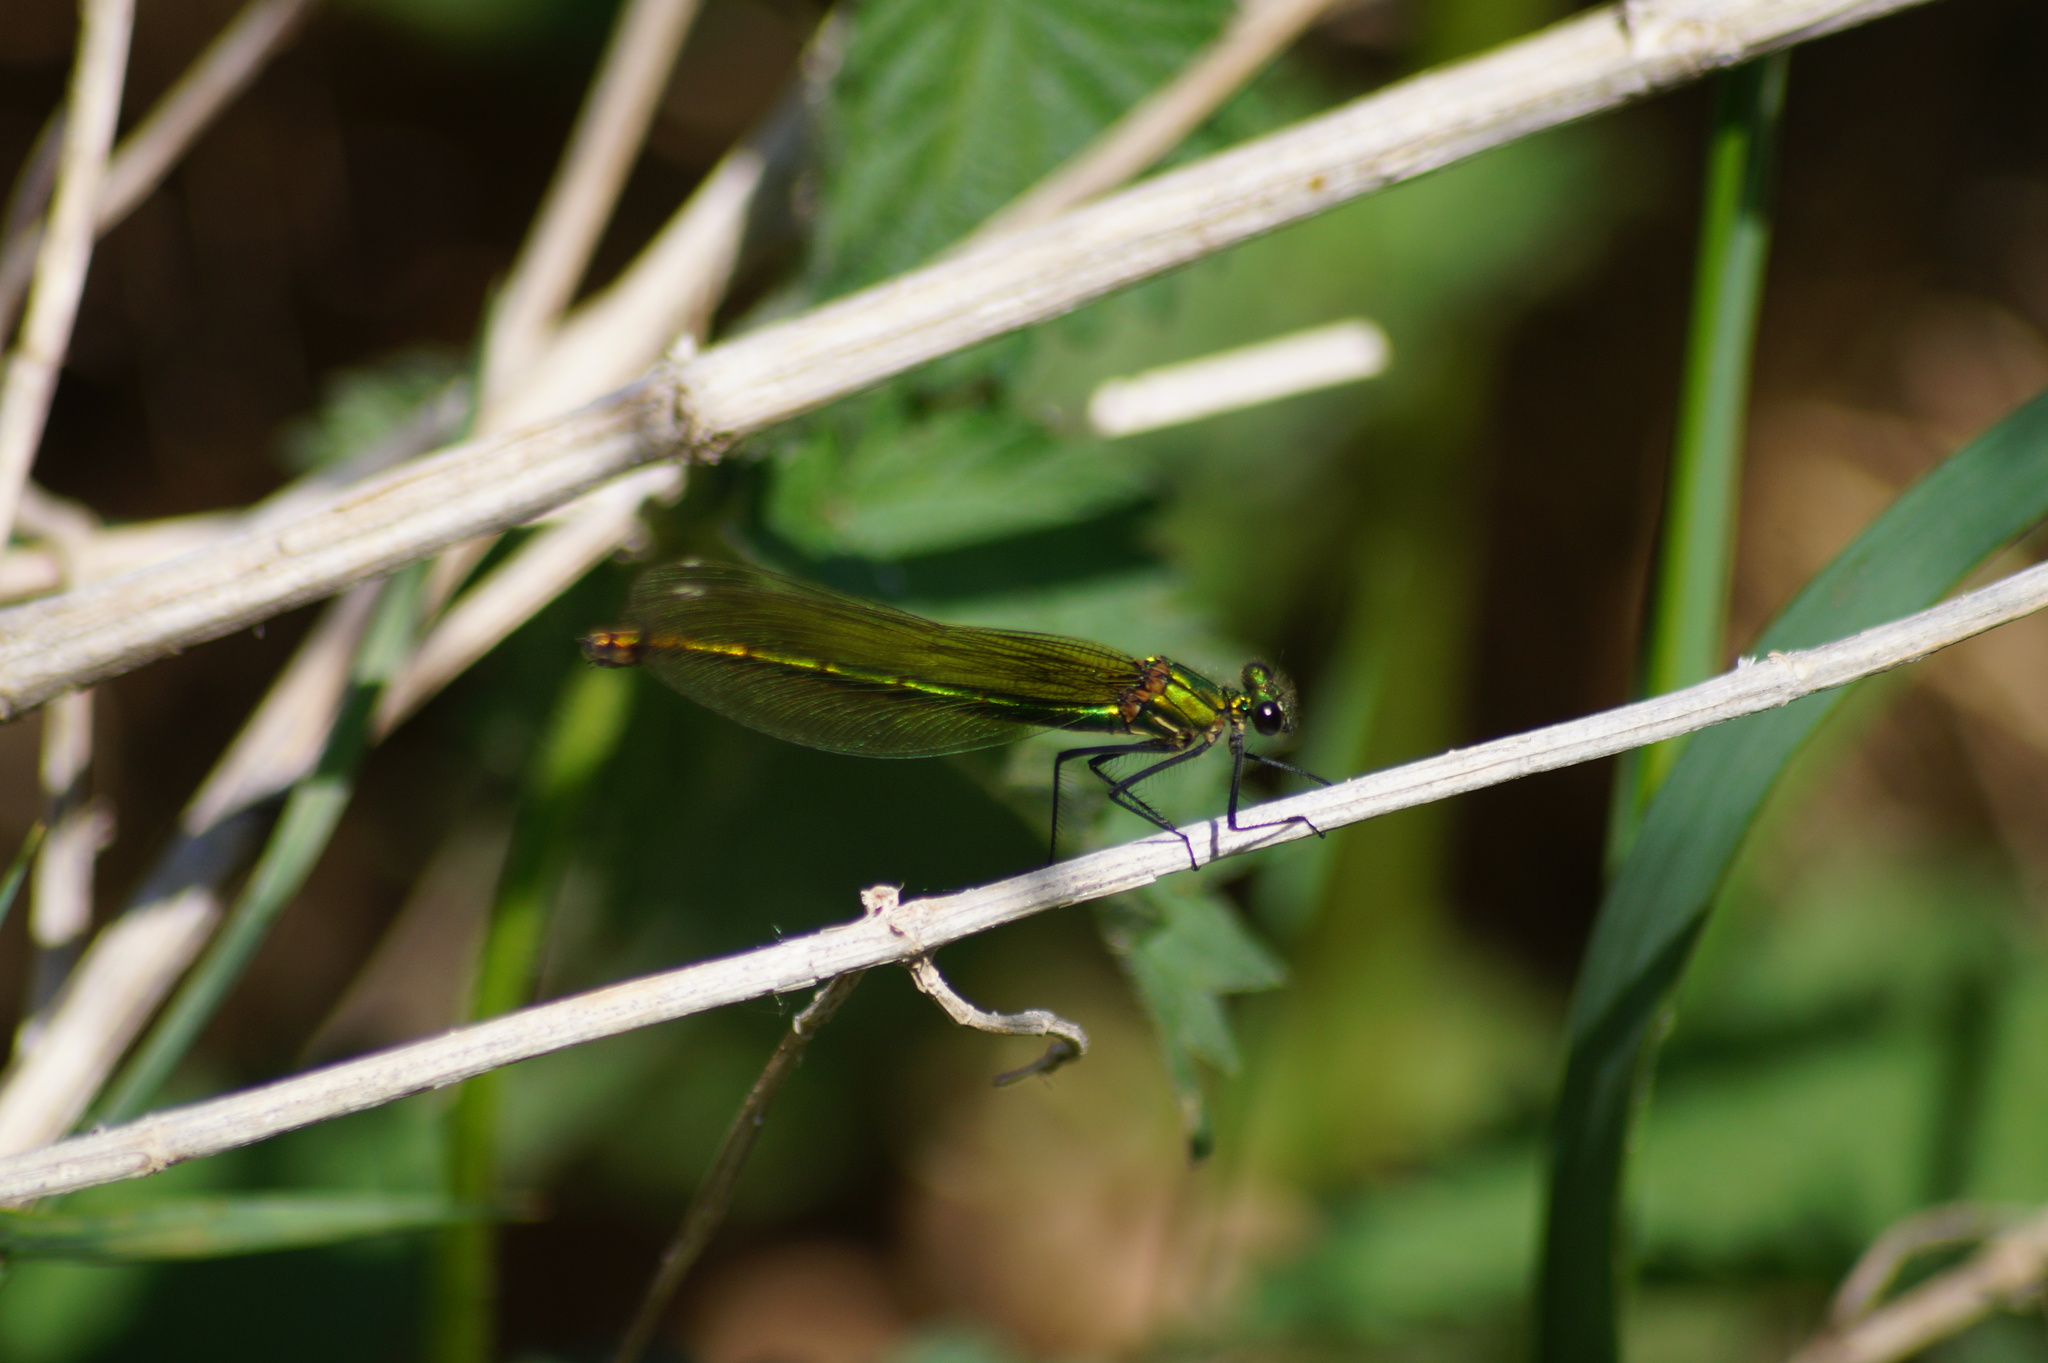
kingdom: Animalia
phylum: Arthropoda
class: Insecta
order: Odonata
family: Calopterygidae
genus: Calopteryx
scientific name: Calopteryx splendens
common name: Banded demoiselle
